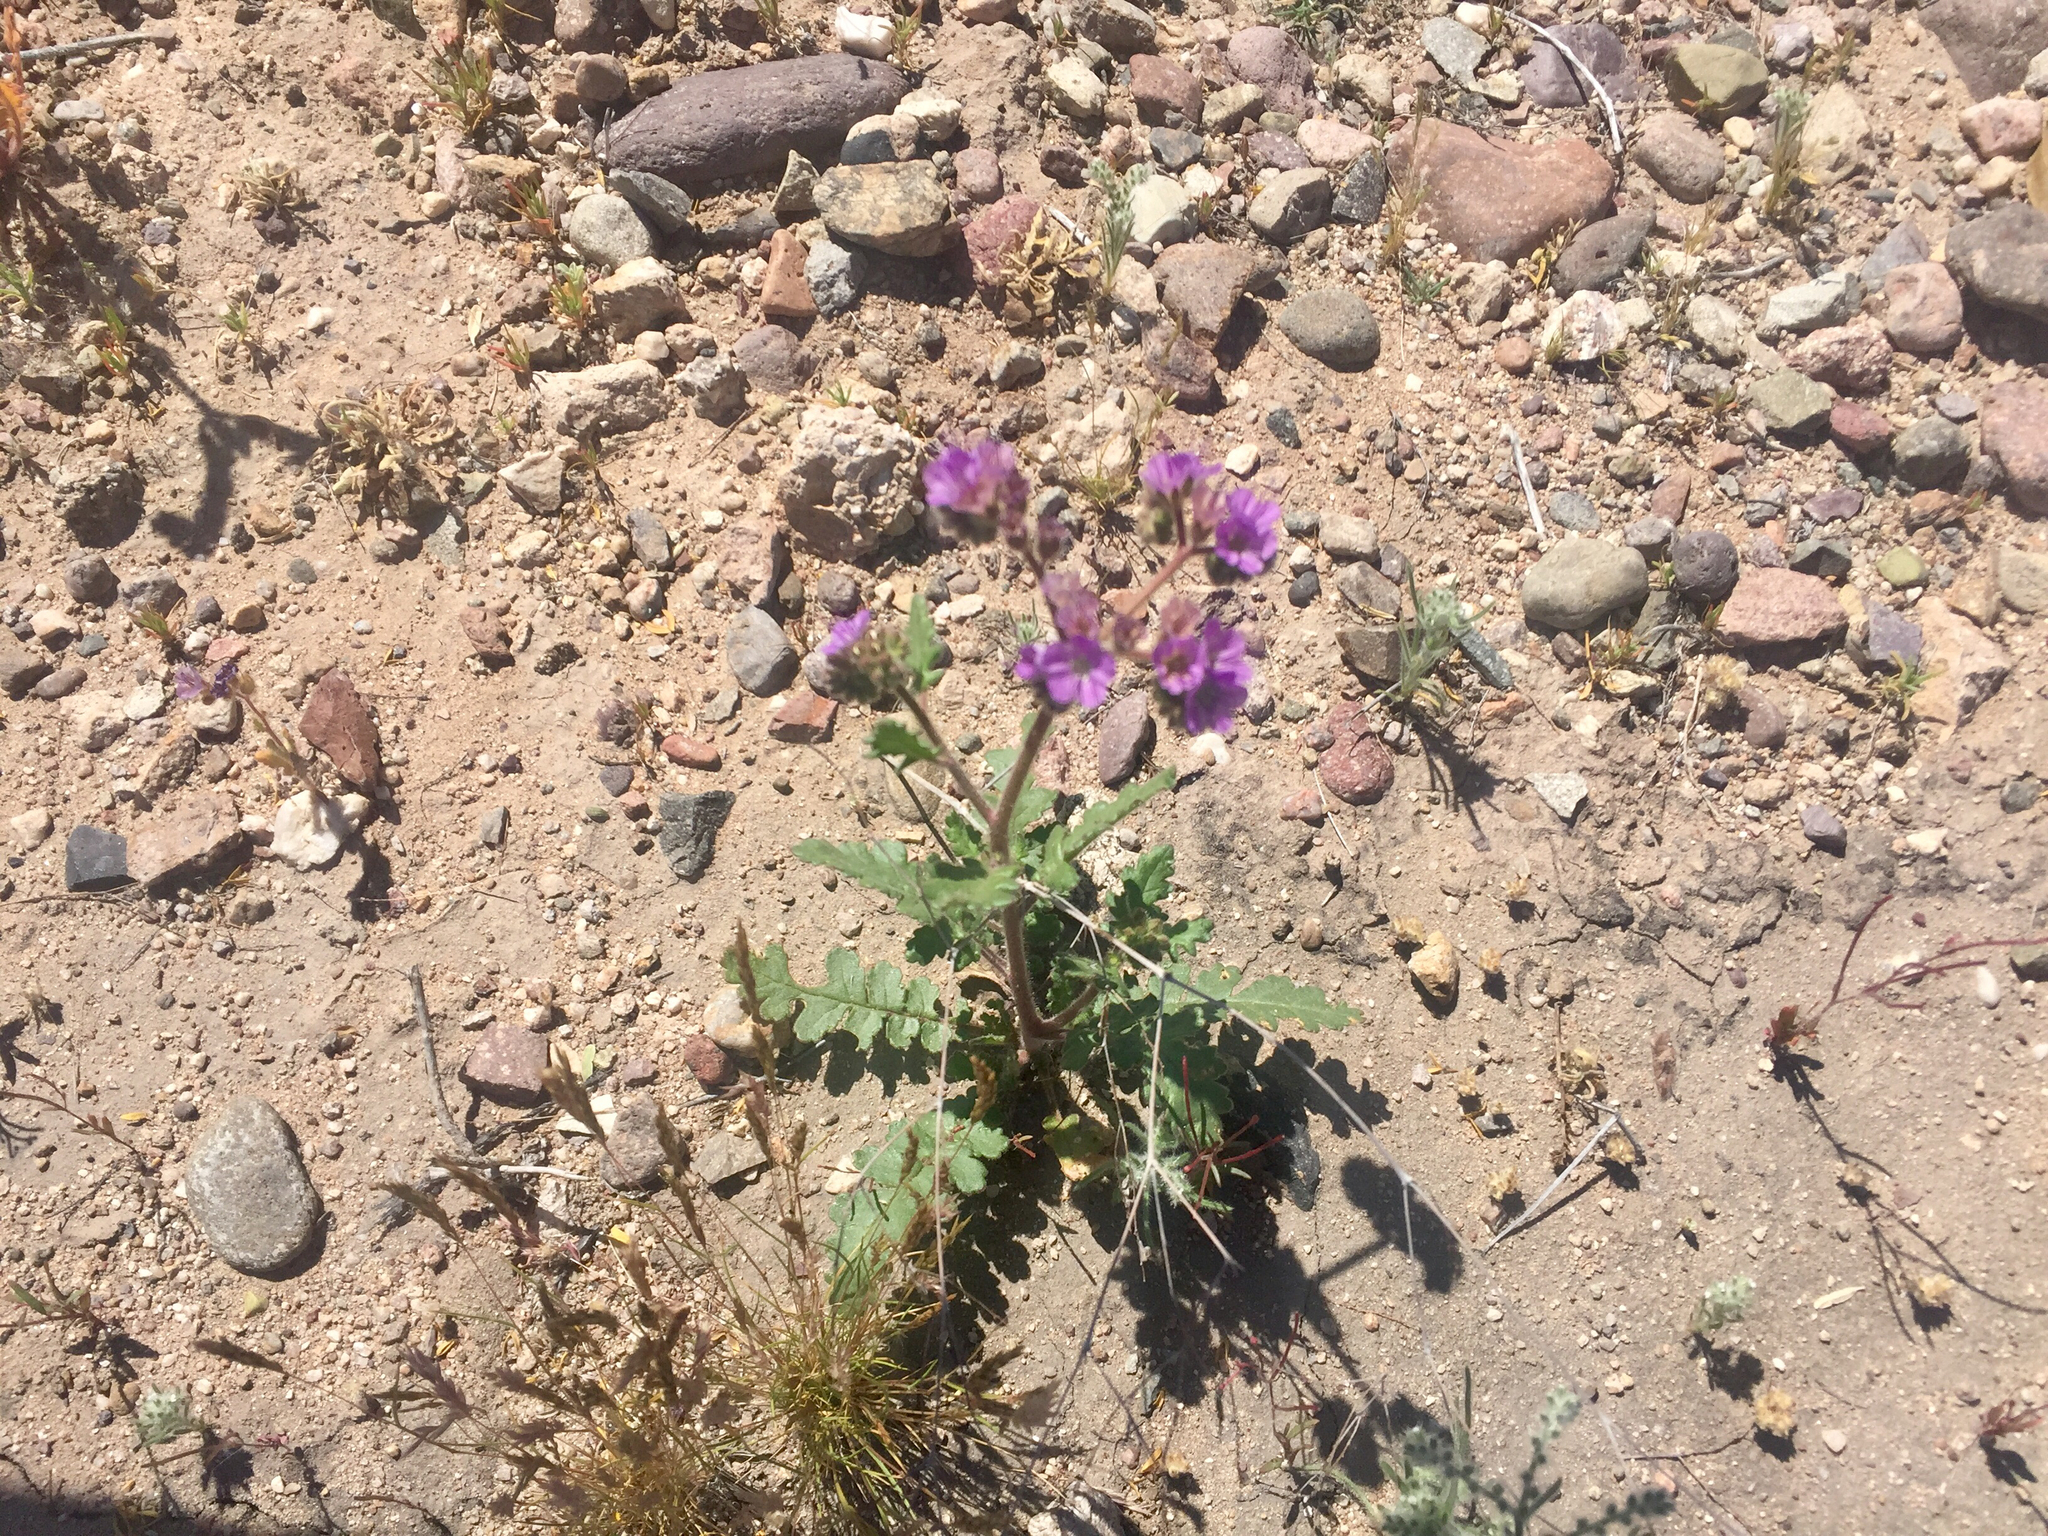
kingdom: Plantae
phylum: Tracheophyta
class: Magnoliopsida
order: Boraginales
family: Hydrophyllaceae
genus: Phacelia
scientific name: Phacelia crenulata
